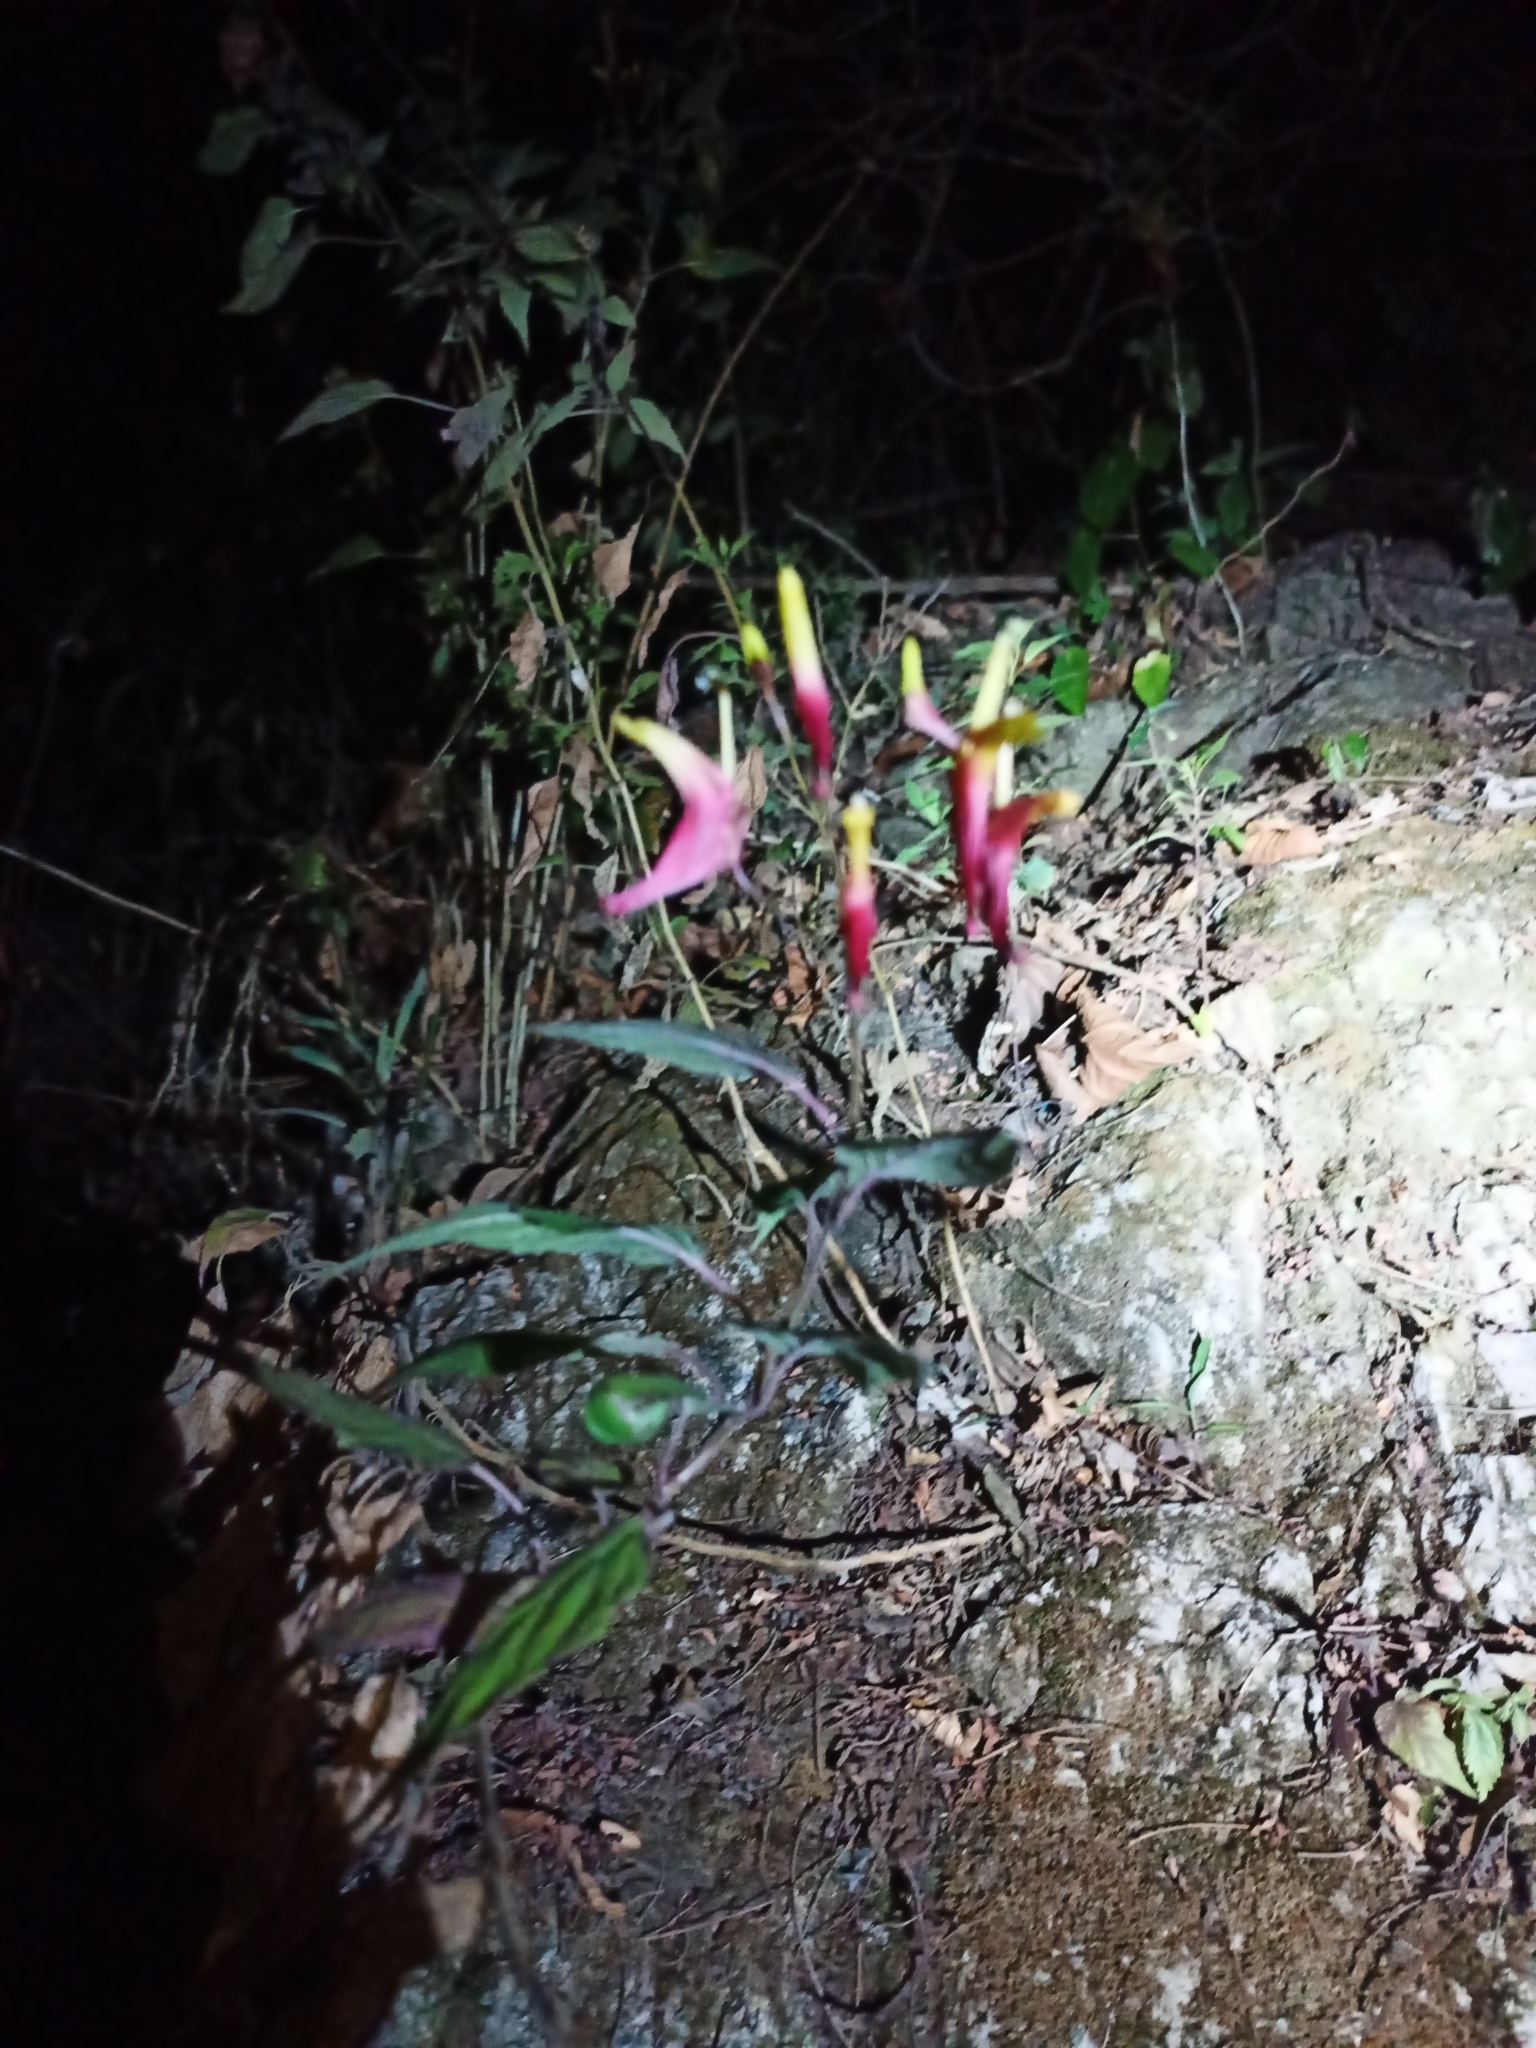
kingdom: Plantae
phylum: Tracheophyta
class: Magnoliopsida
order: Asterales
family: Campanulaceae
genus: Heterotoma
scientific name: Heterotoma lobelioides
